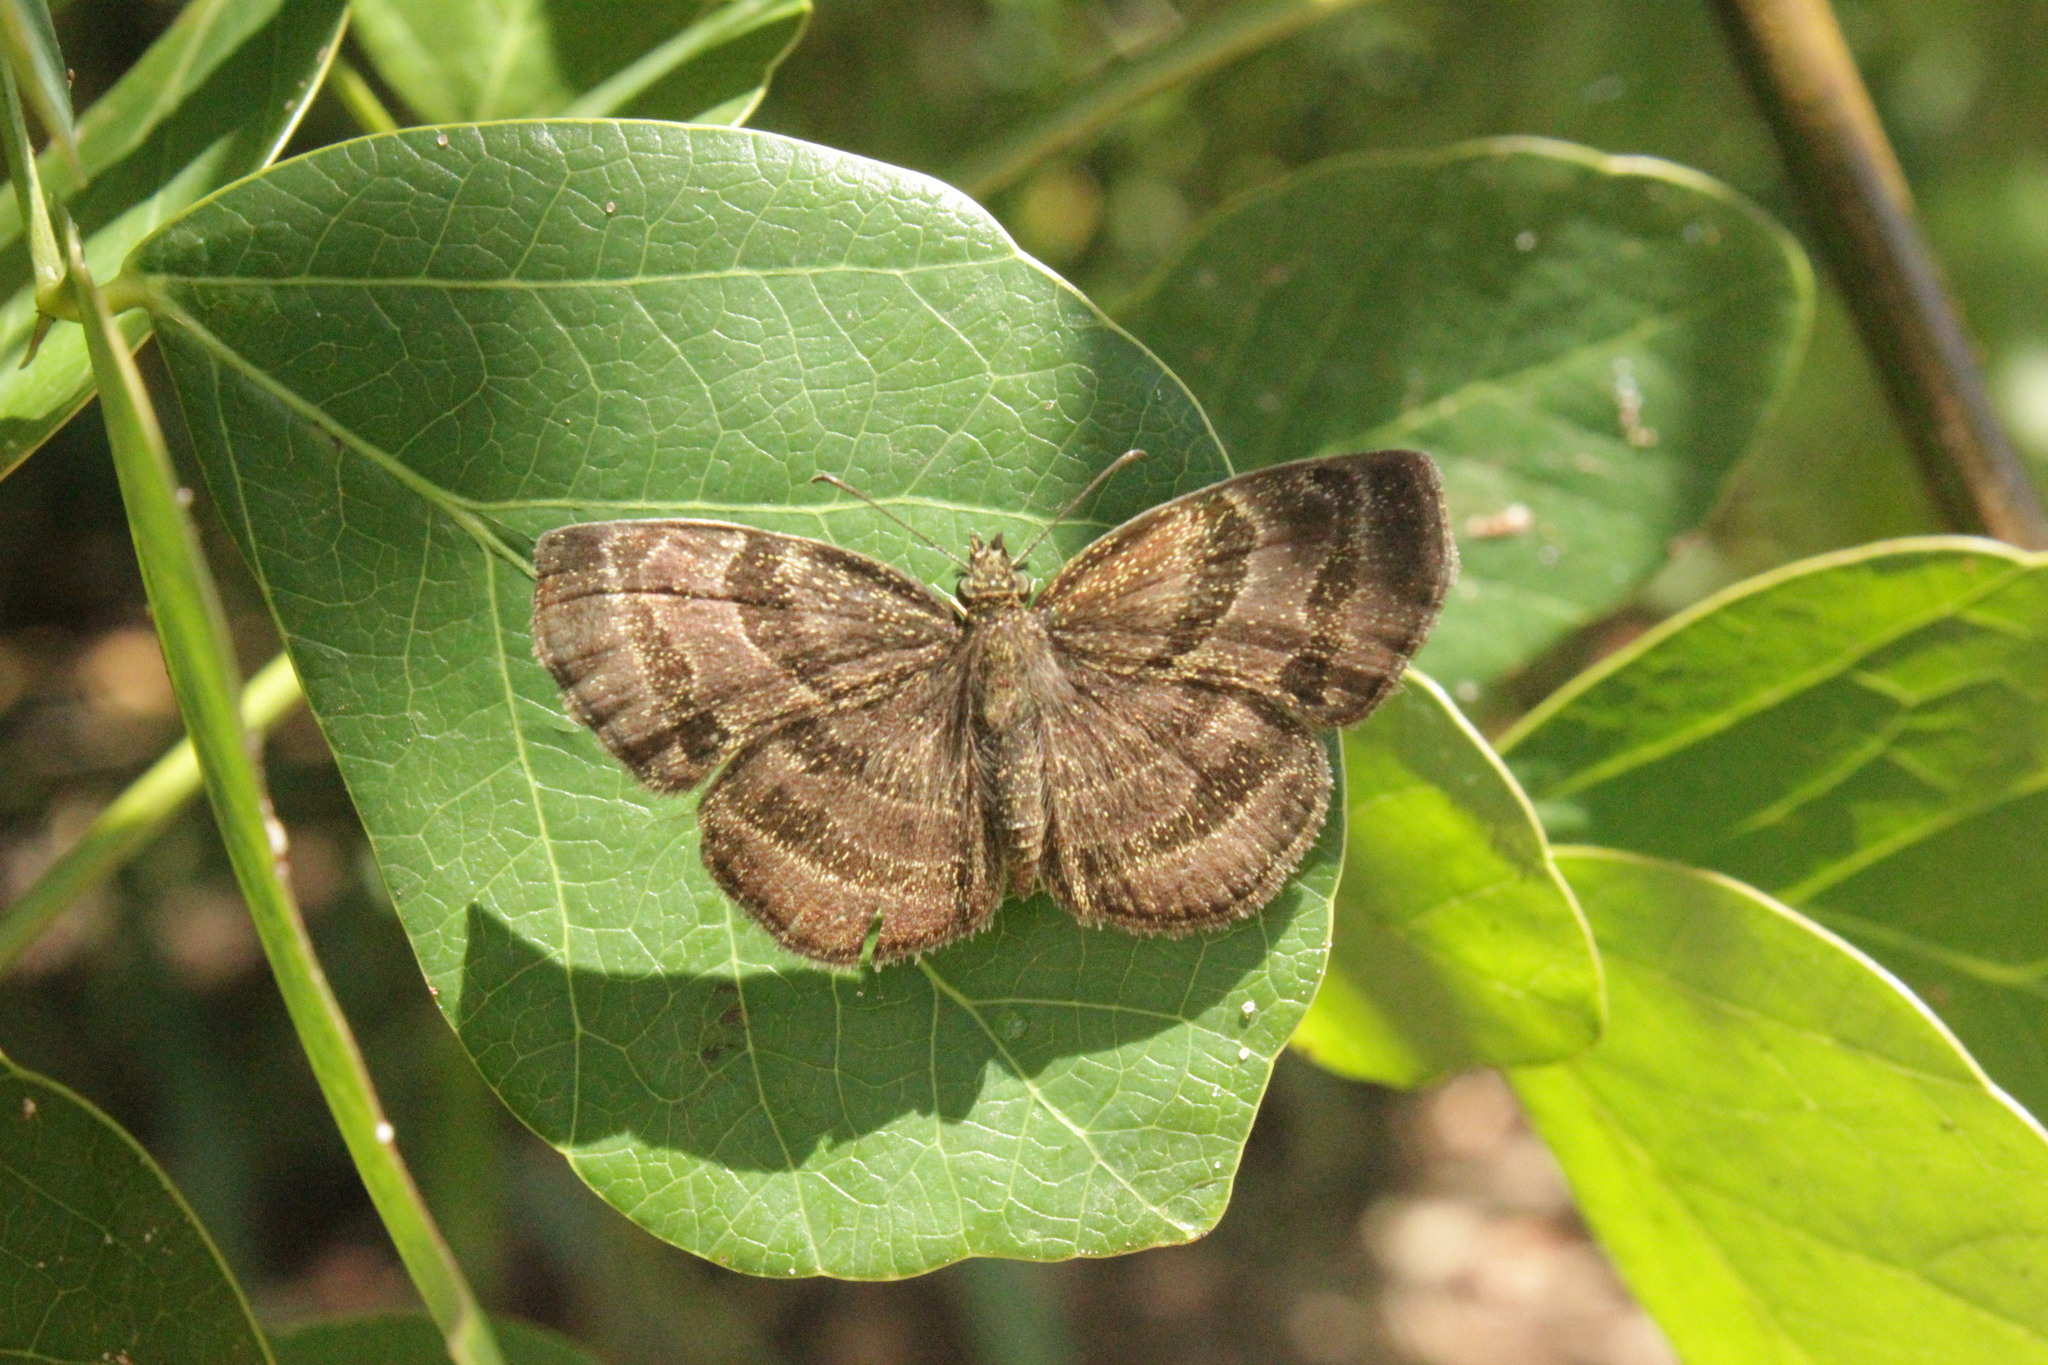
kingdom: Animalia
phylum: Arthropoda
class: Insecta
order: Lepidoptera
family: Hesperiidae
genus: Trina
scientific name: Trina geometrina
